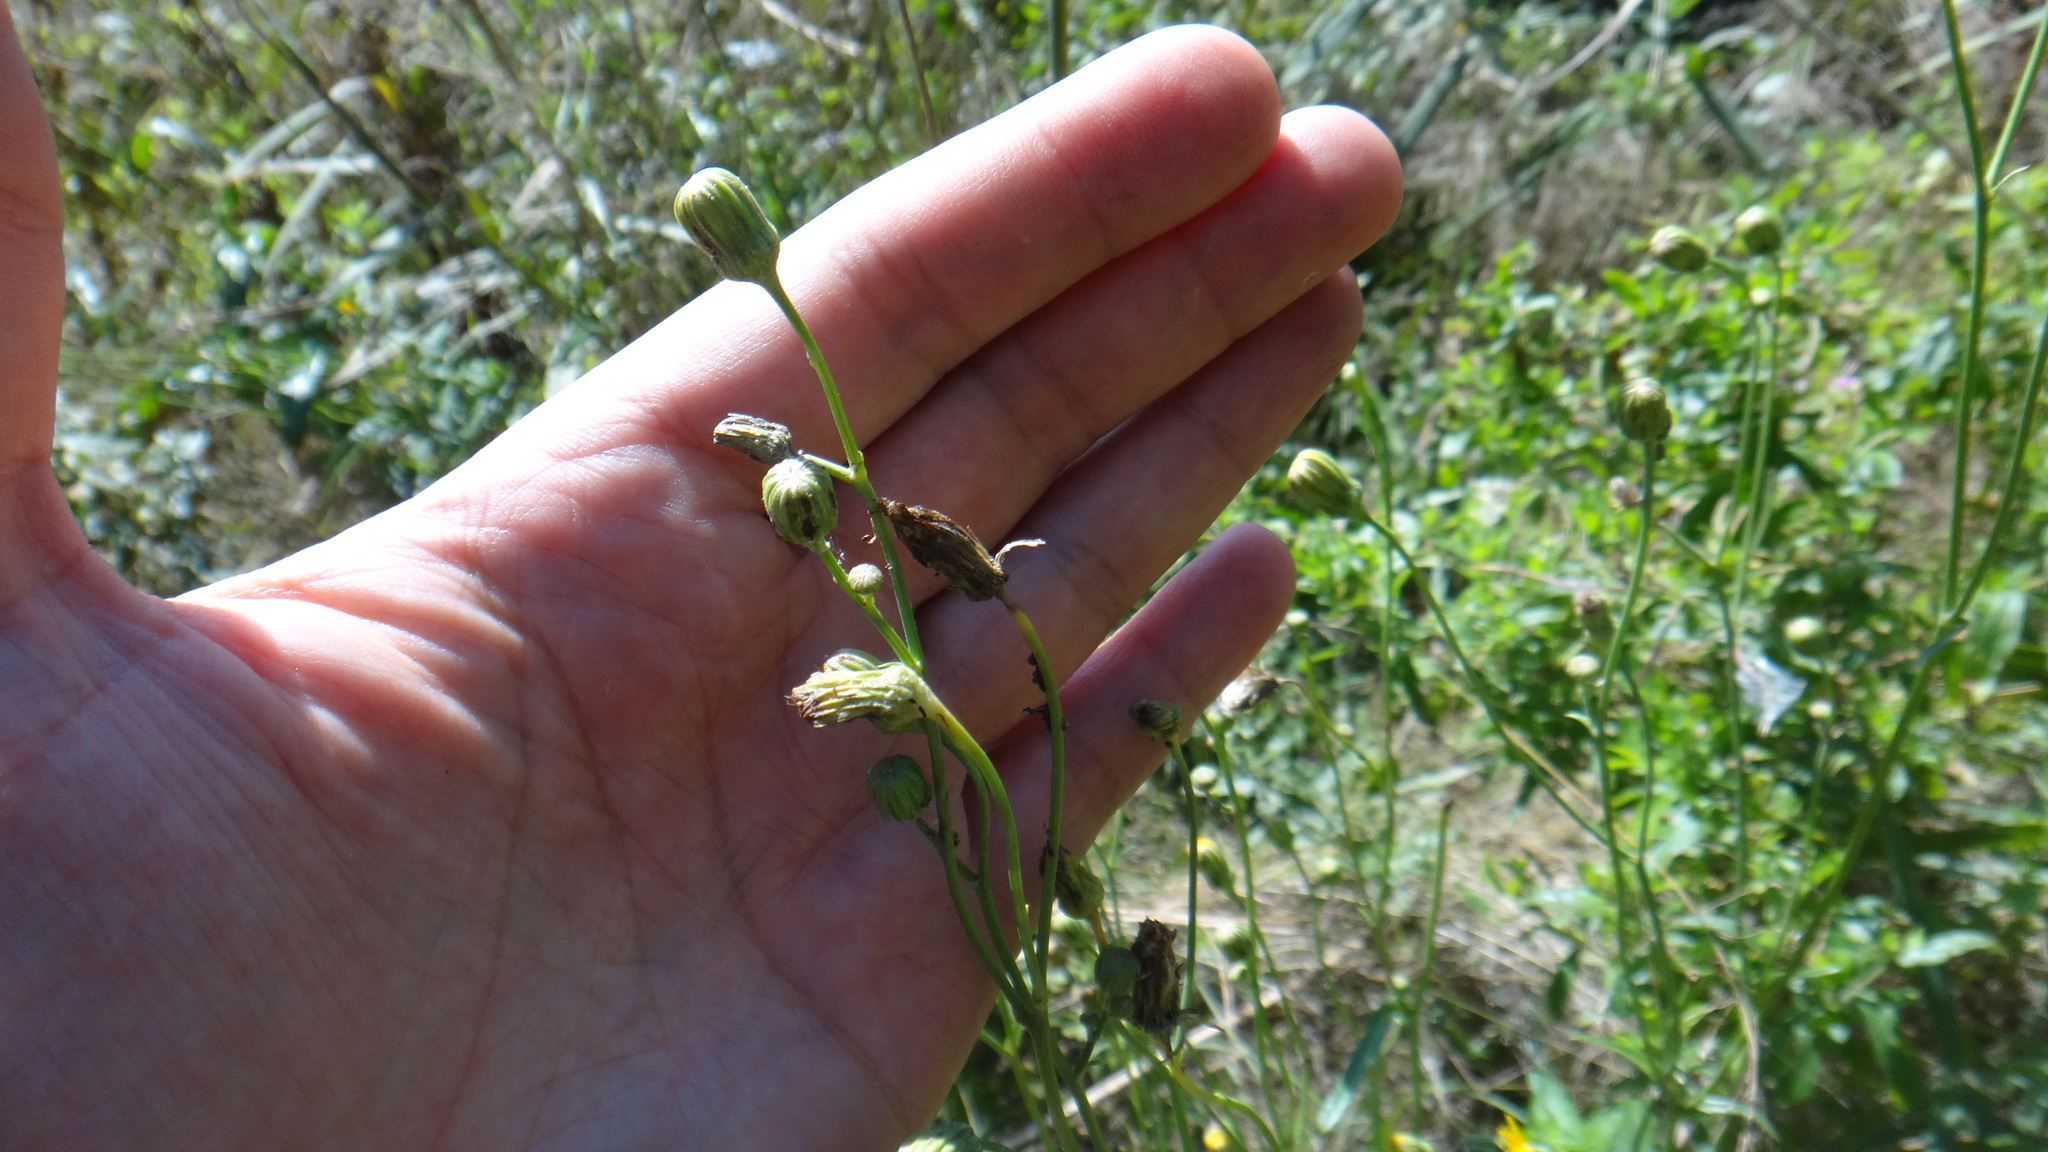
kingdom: Plantae
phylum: Tracheophyta
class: Magnoliopsida
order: Asterales
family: Asteraceae
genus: Sonchus
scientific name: Sonchus arvensis
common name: Perennial sow-thistle
